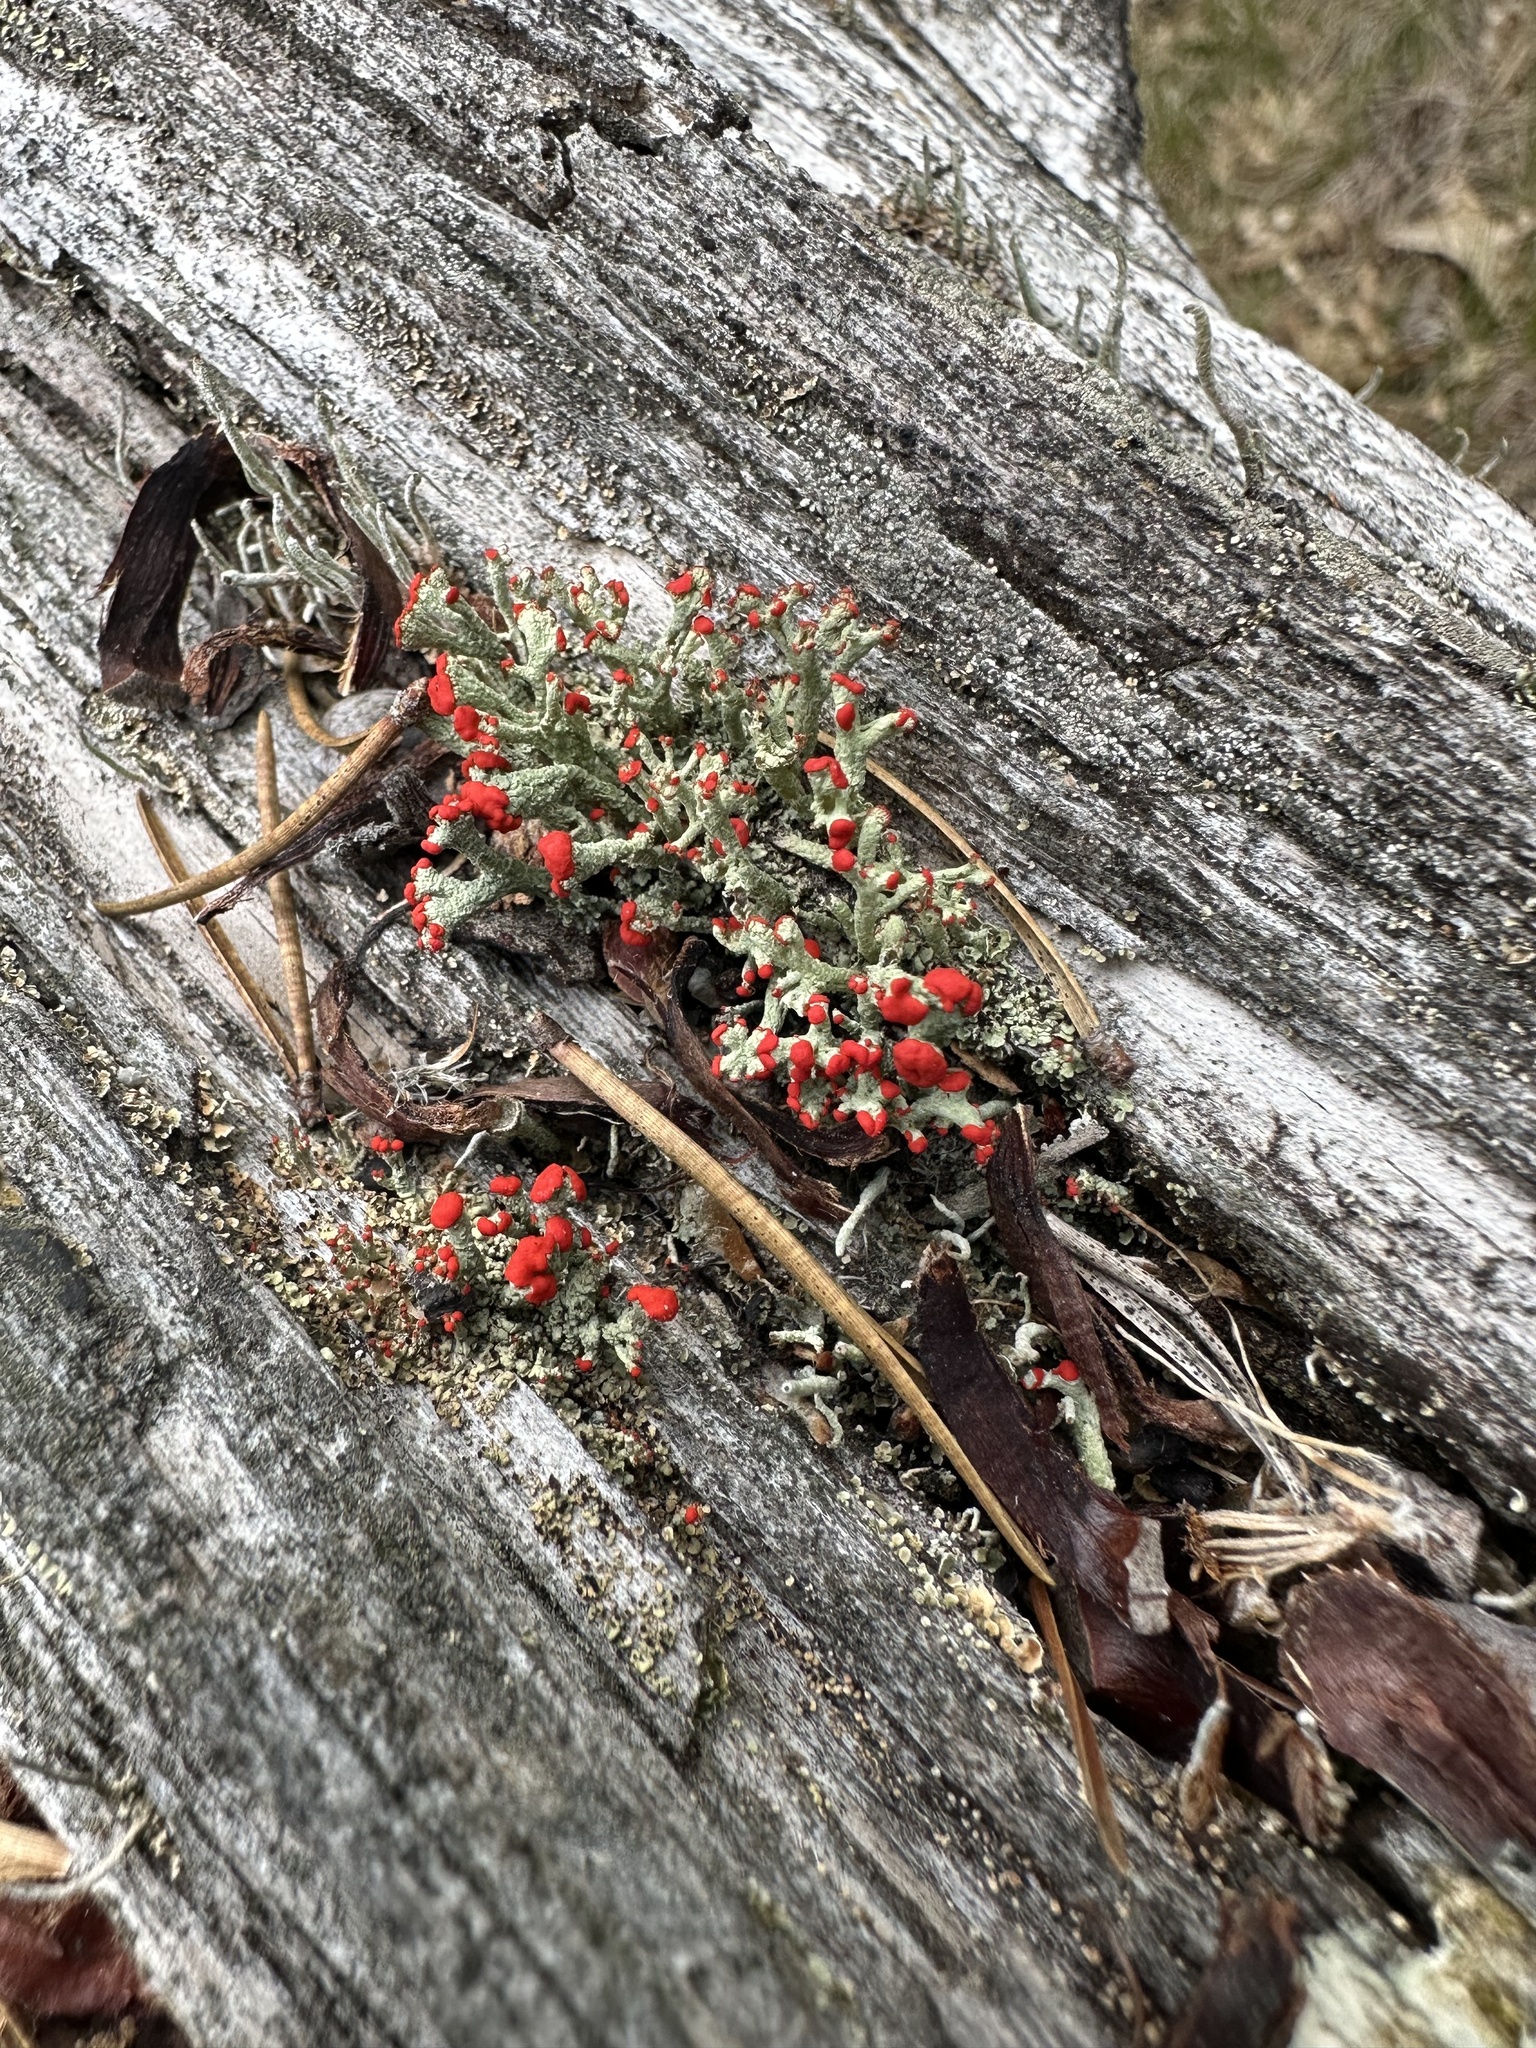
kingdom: Fungi
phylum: Ascomycota
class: Lecanoromycetes
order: Lecanorales
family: Cladoniaceae
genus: Cladonia
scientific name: Cladonia cristatella
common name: British soldier lichen
